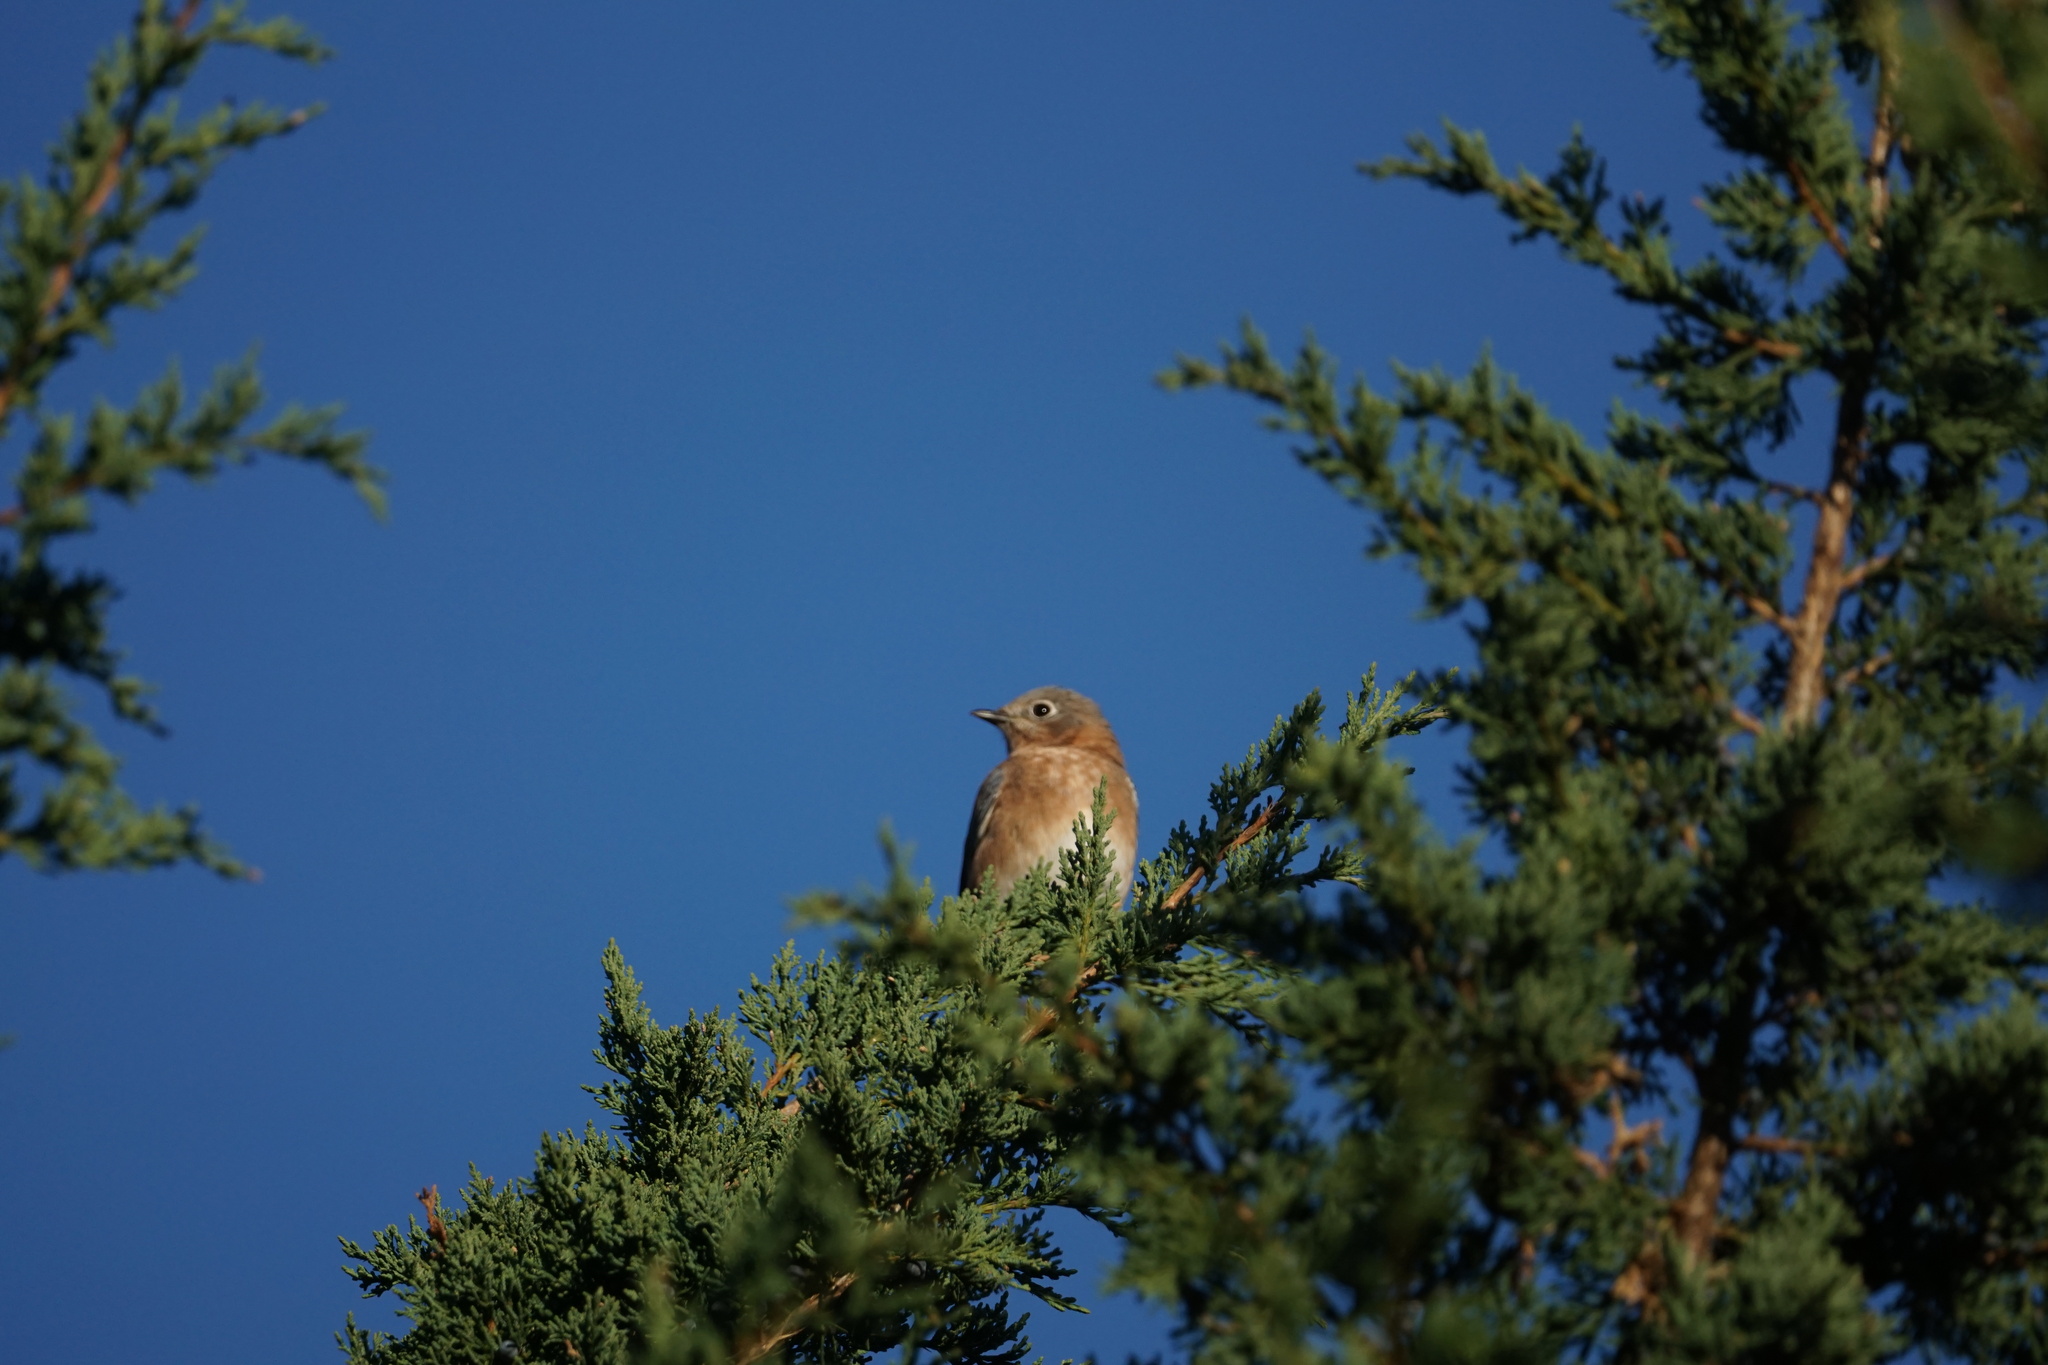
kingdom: Animalia
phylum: Chordata
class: Aves
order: Passeriformes
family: Turdidae
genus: Sialia
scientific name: Sialia sialis
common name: Eastern bluebird
